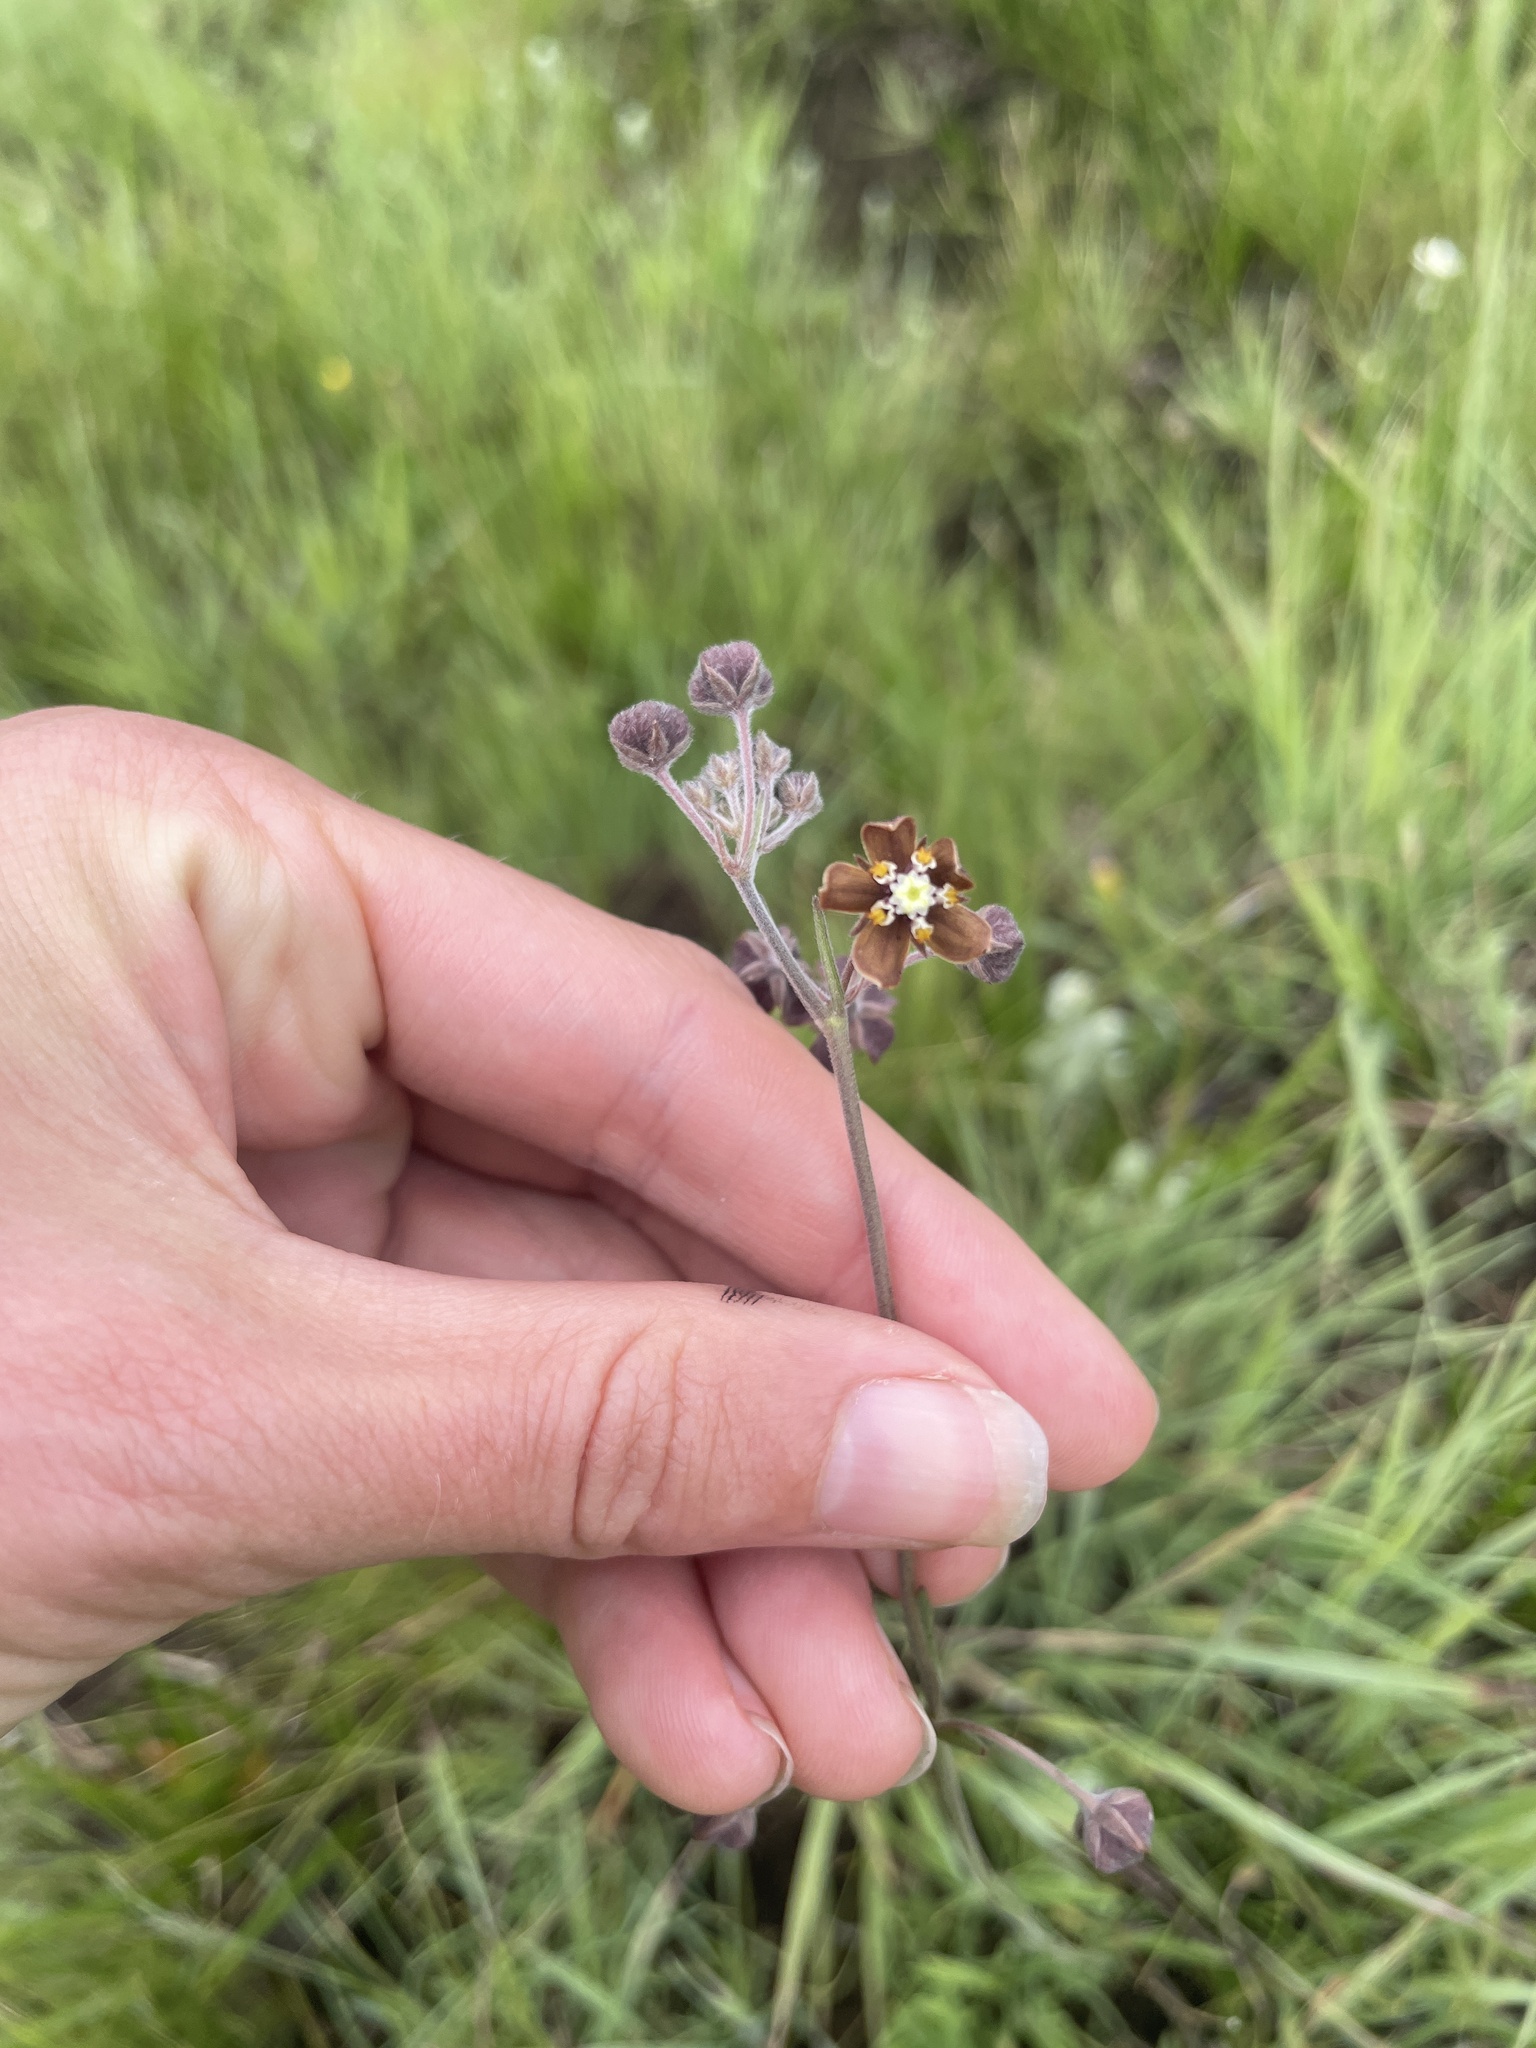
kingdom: Plantae
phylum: Tracheophyta
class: Magnoliopsida
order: Gentianales
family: Apocynaceae
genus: Aspidonepsis
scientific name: Aspidonepsis reenensis
